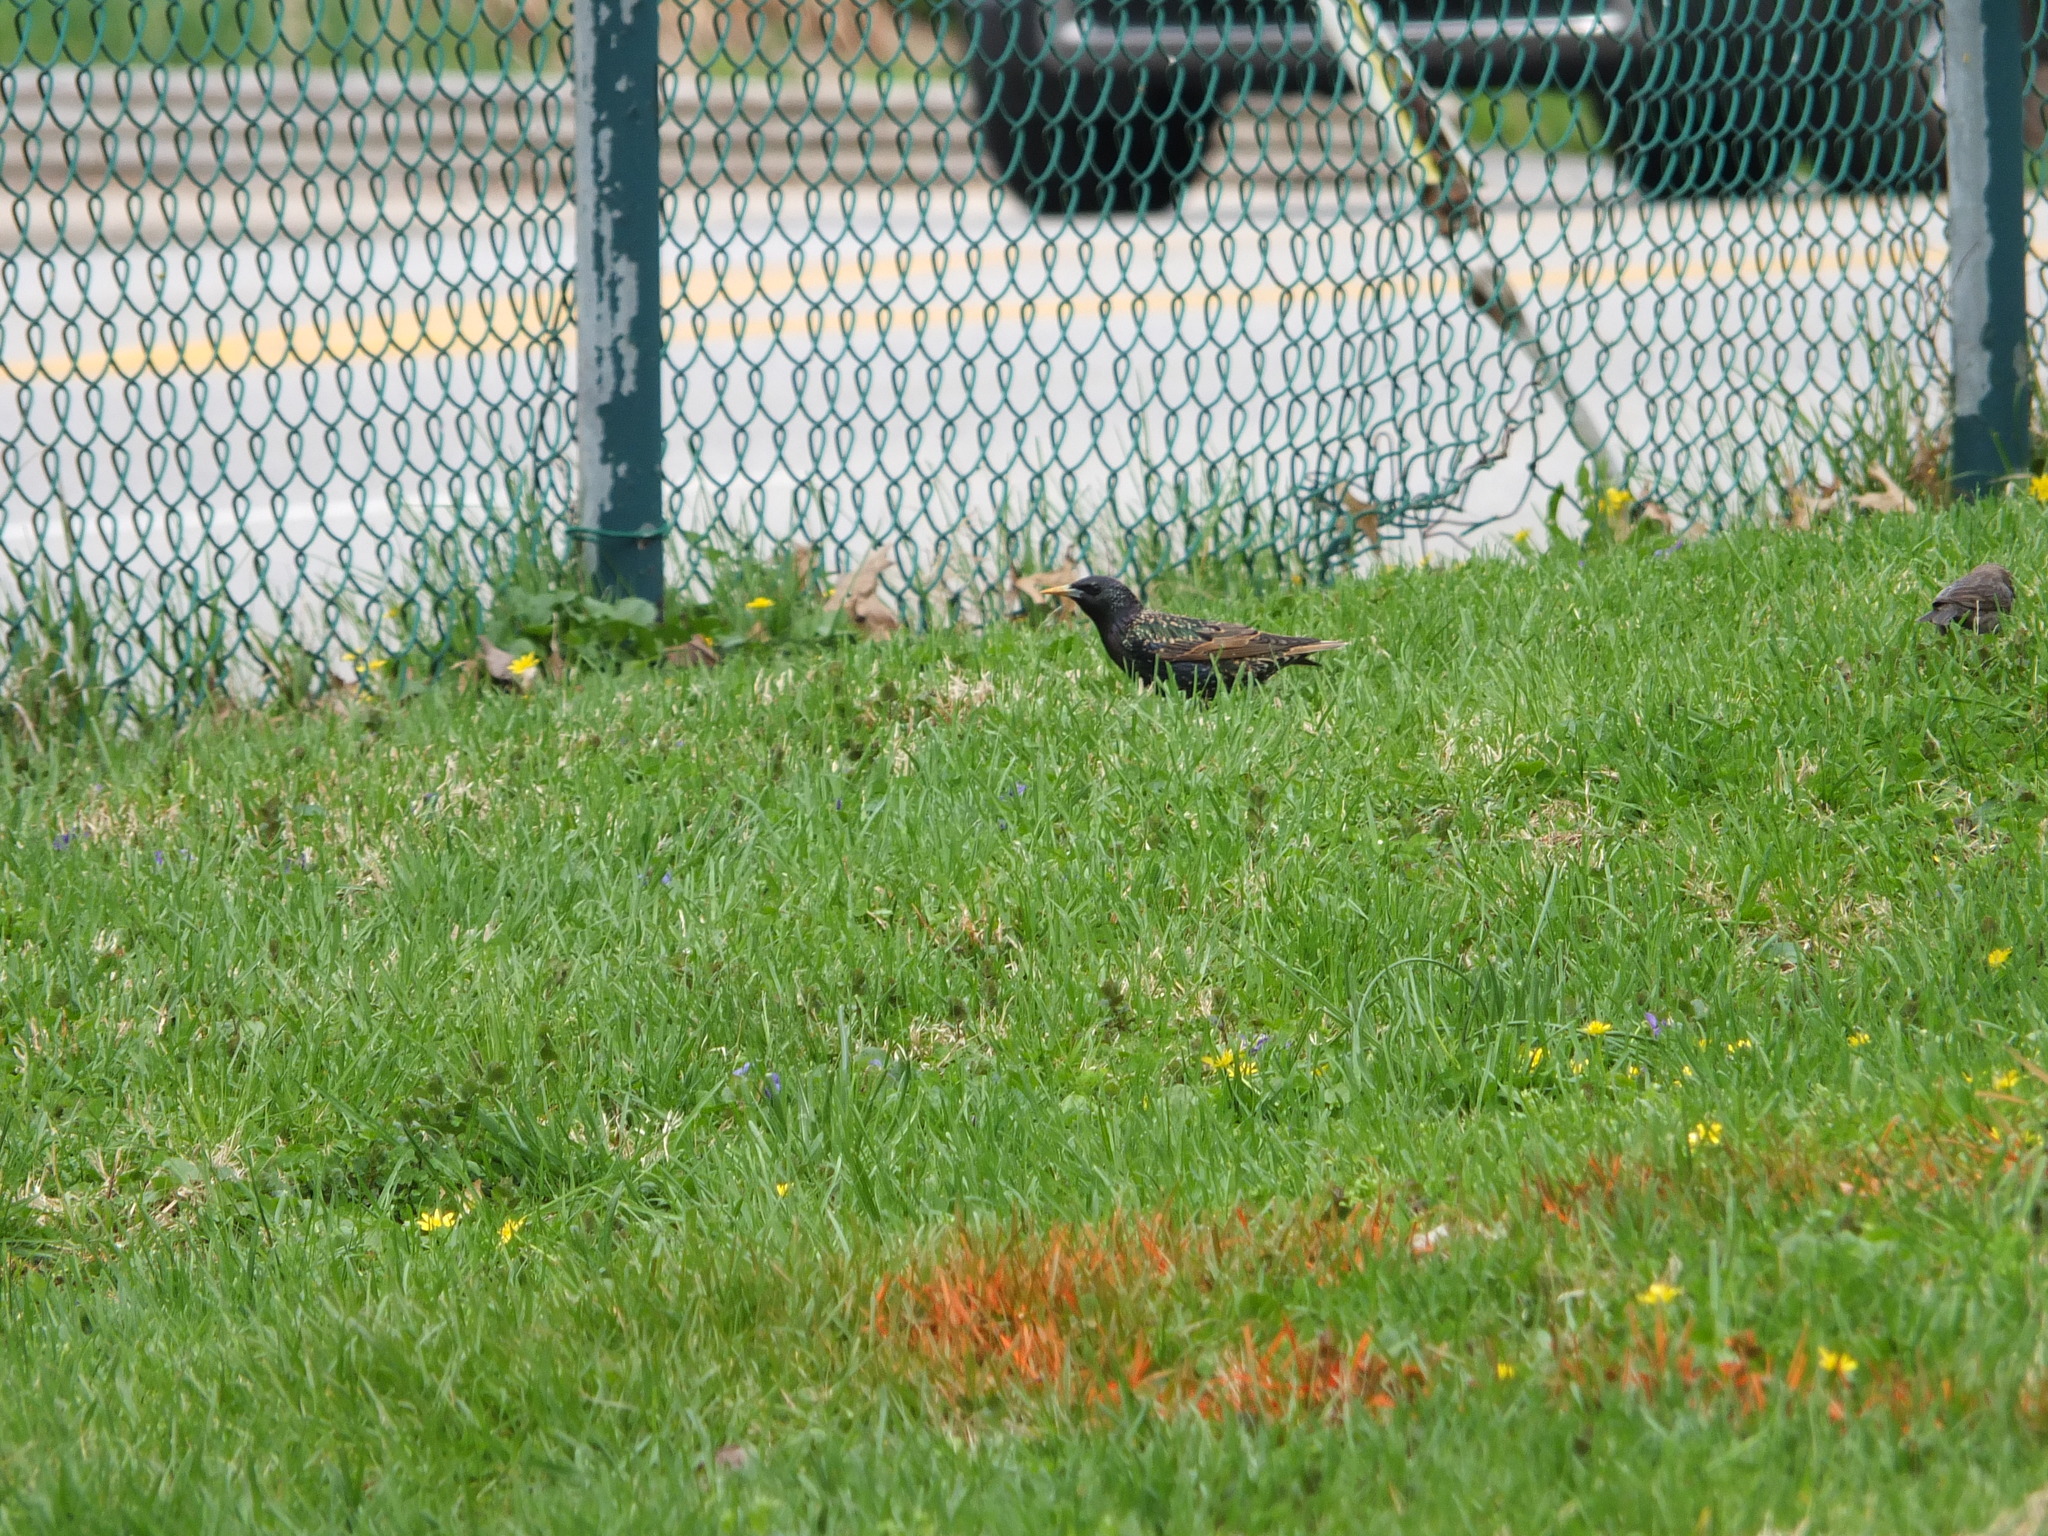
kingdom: Animalia
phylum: Chordata
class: Aves
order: Passeriformes
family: Sturnidae
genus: Sturnus
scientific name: Sturnus vulgaris
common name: Common starling
